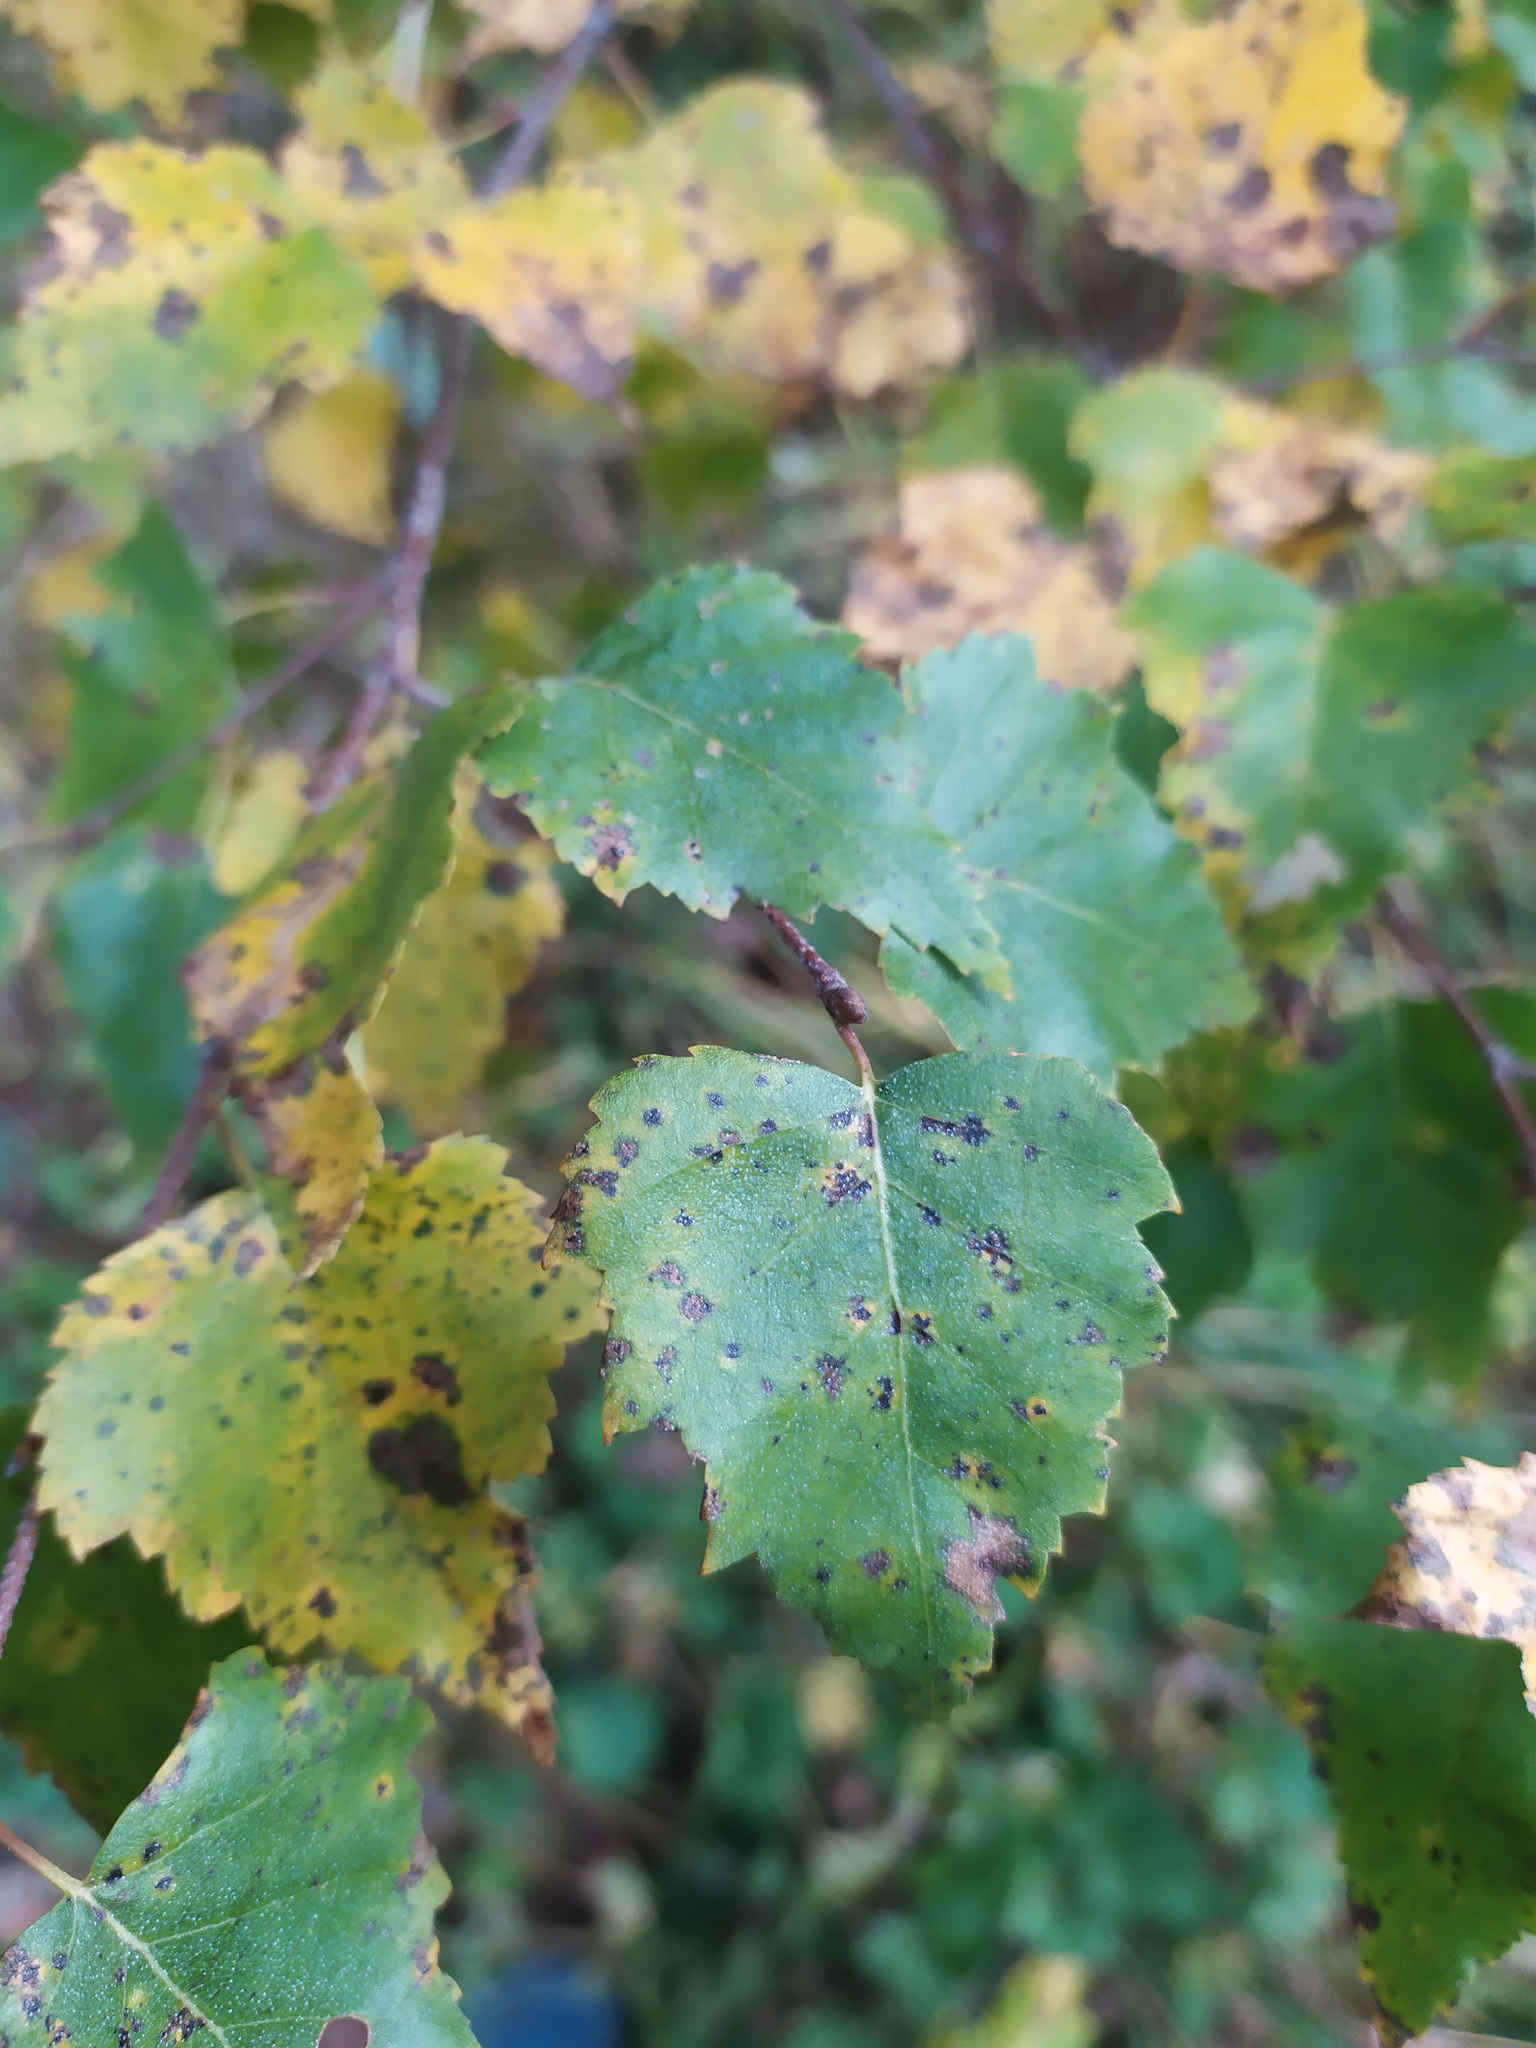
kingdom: Plantae
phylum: Tracheophyta
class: Magnoliopsida
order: Fagales
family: Betulaceae
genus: Betula
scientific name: Betula pendula
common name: Silver birch
